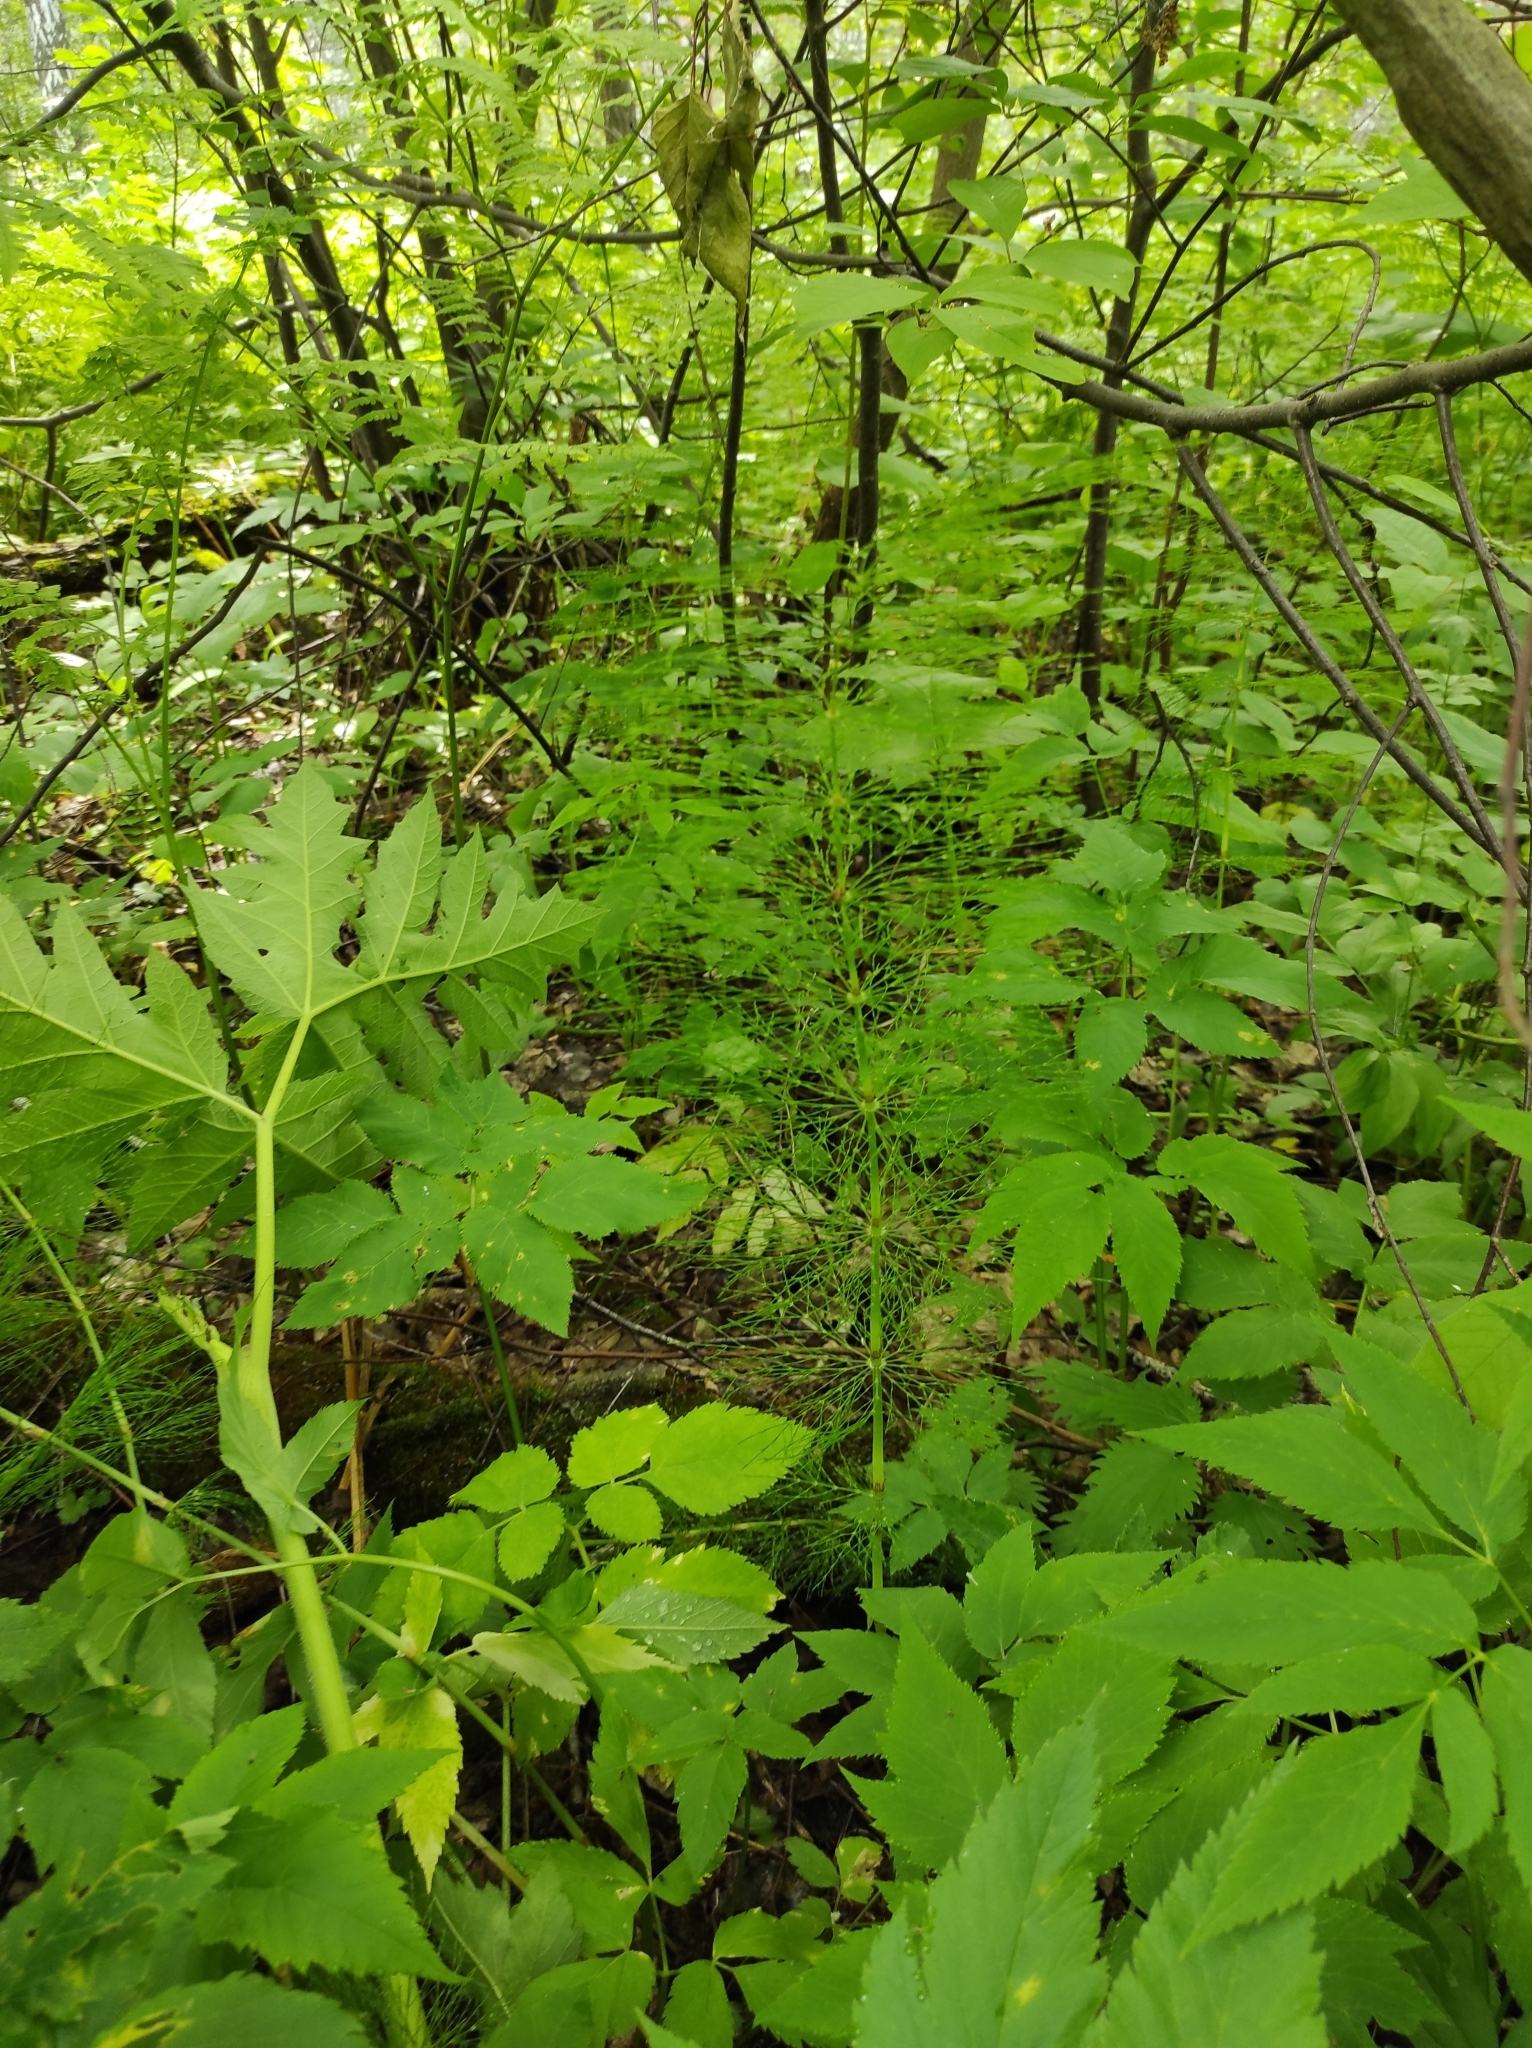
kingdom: Plantae
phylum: Tracheophyta
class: Polypodiopsida
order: Equisetales
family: Equisetaceae
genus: Equisetum
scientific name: Equisetum sylvaticum
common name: Wood horsetail
